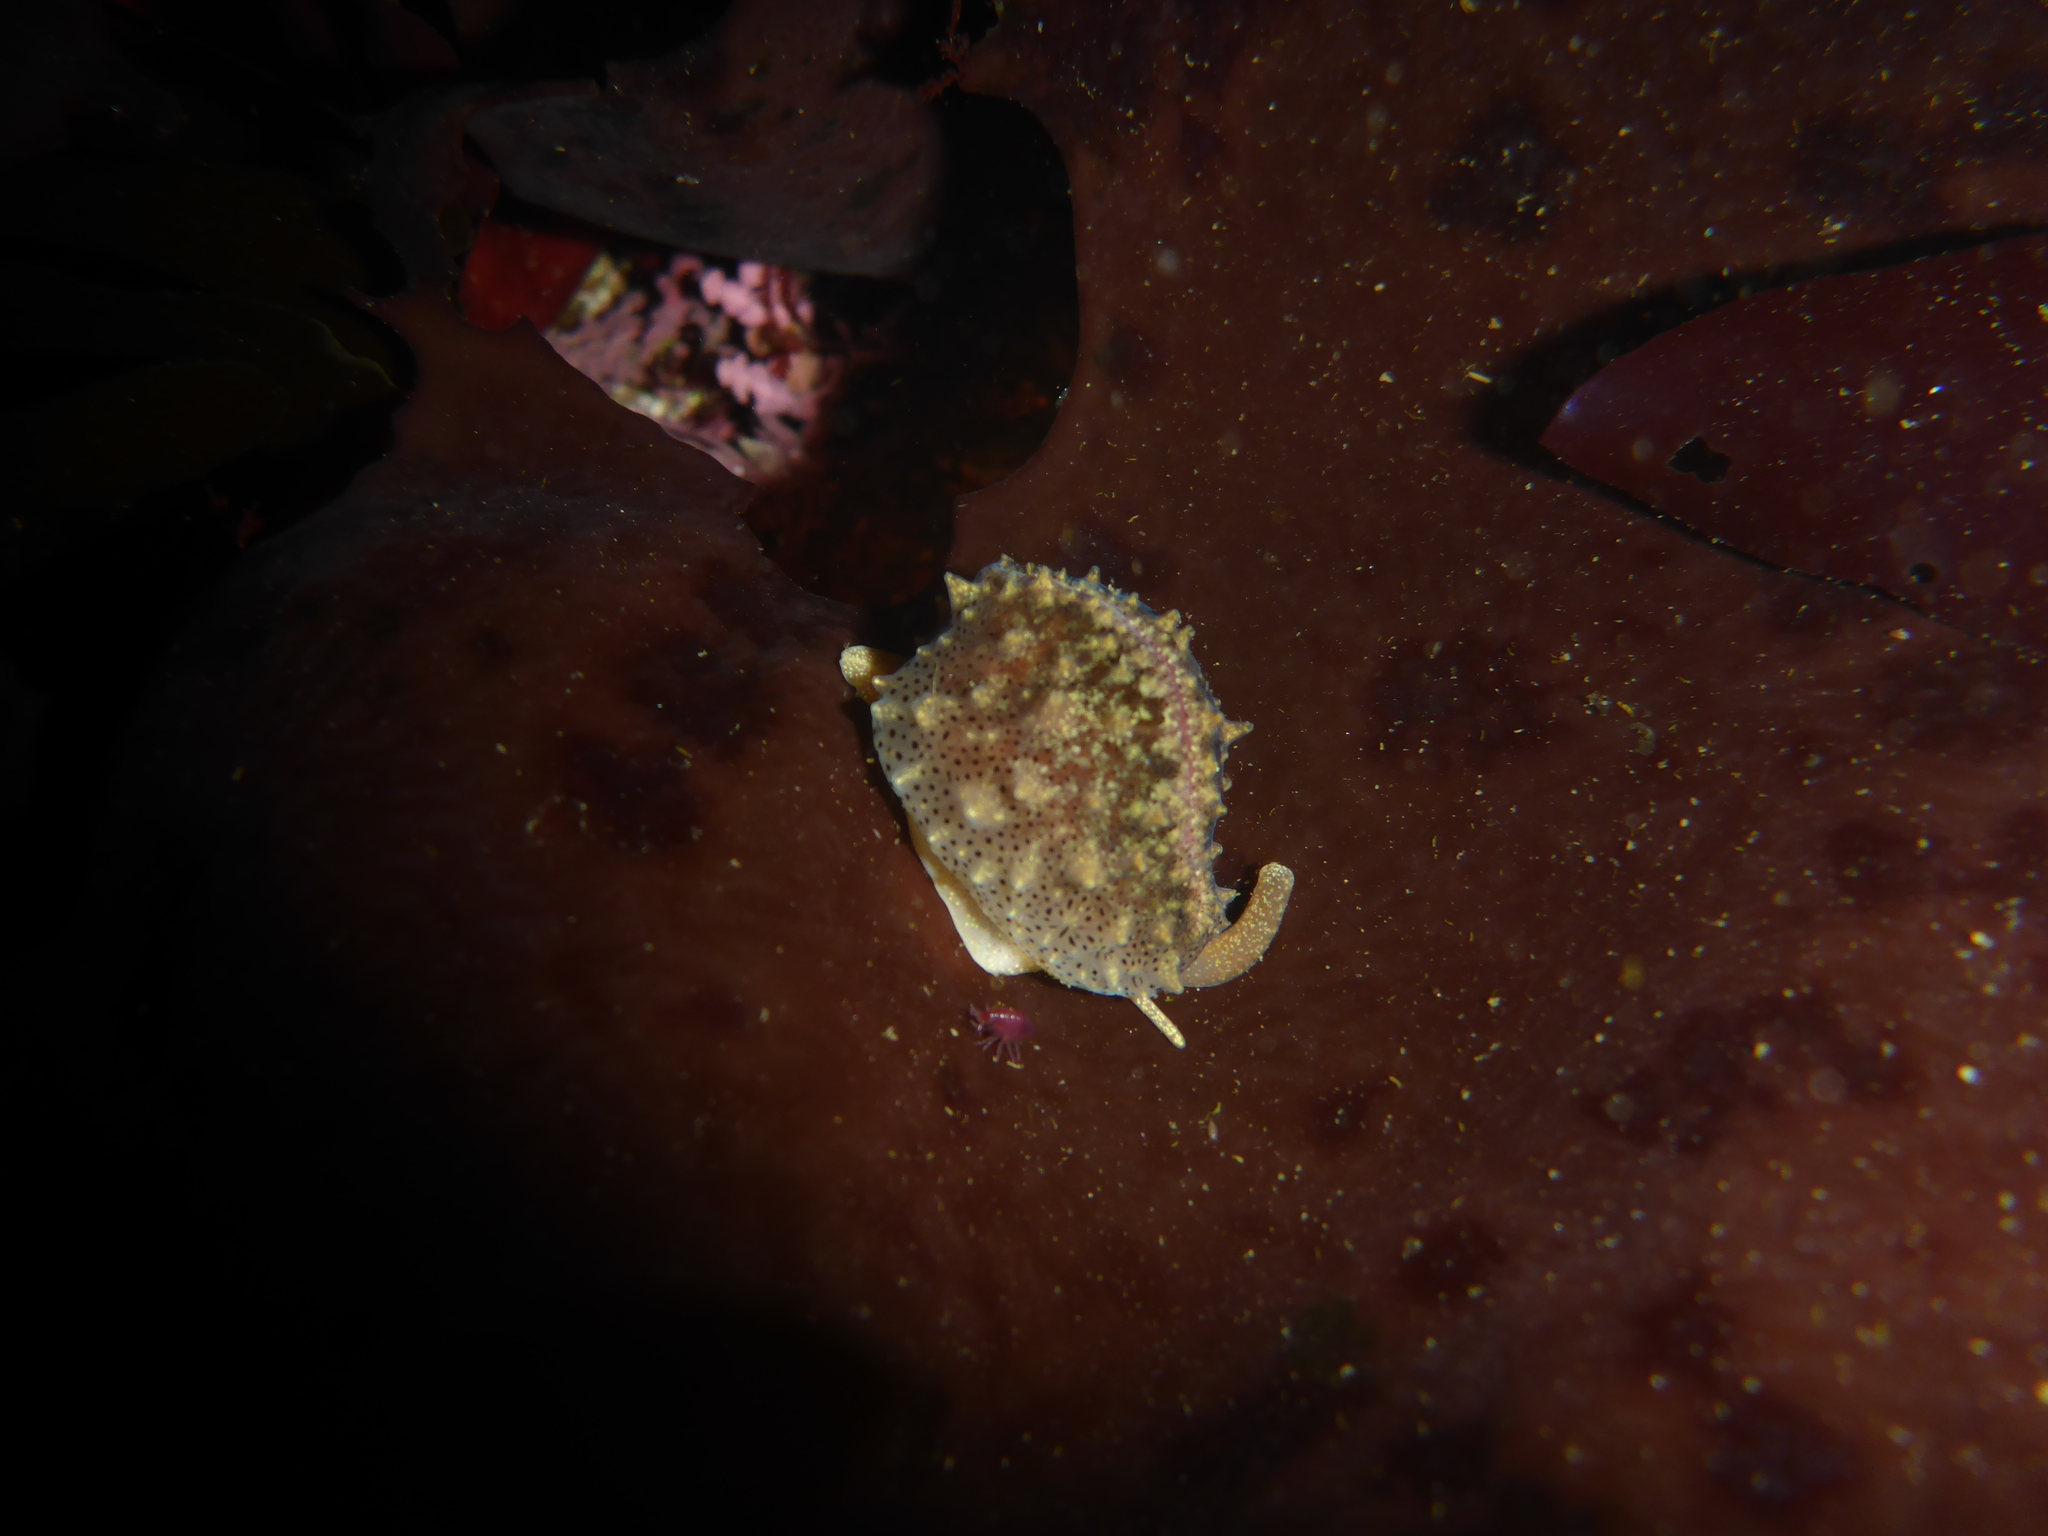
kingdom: Animalia
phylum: Mollusca
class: Gastropoda
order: Littorinimorpha
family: Eratoidae
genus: Hespererato
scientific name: Hespererato vitellina
